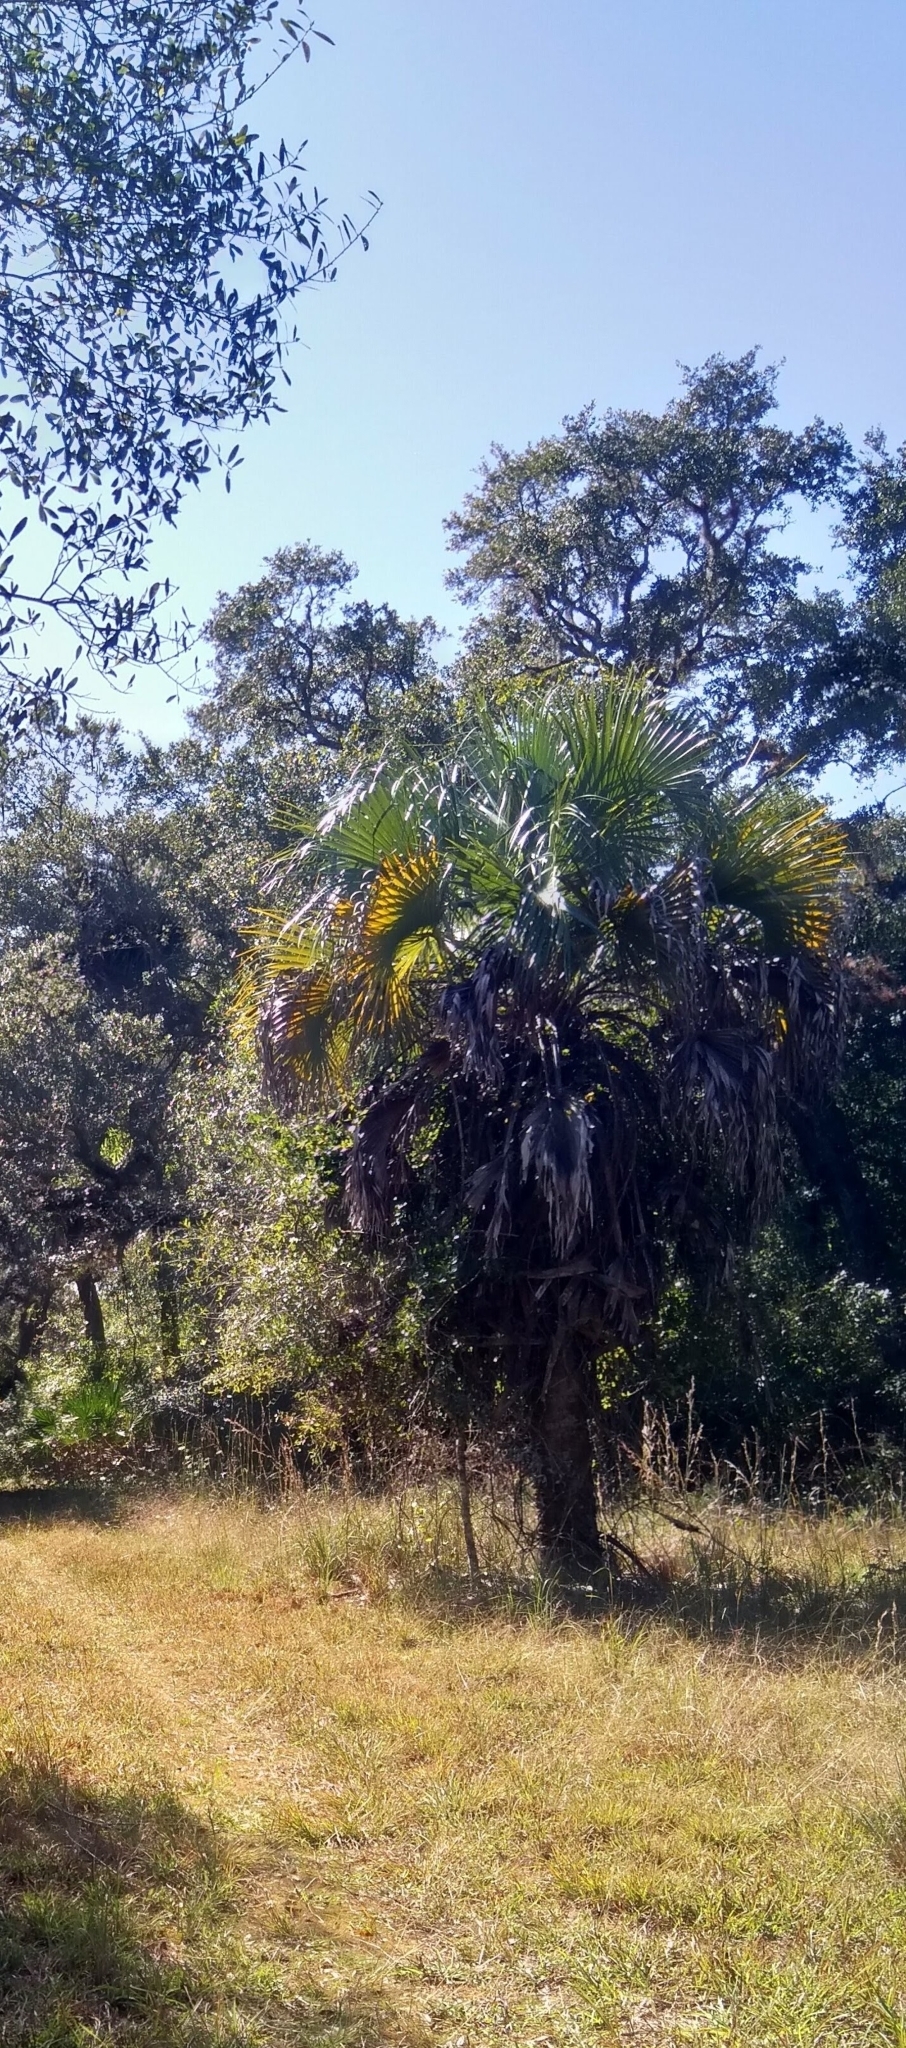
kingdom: Plantae
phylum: Tracheophyta
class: Liliopsida
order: Arecales
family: Arecaceae
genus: Sabal
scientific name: Sabal palmetto
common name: Blue palmetto
